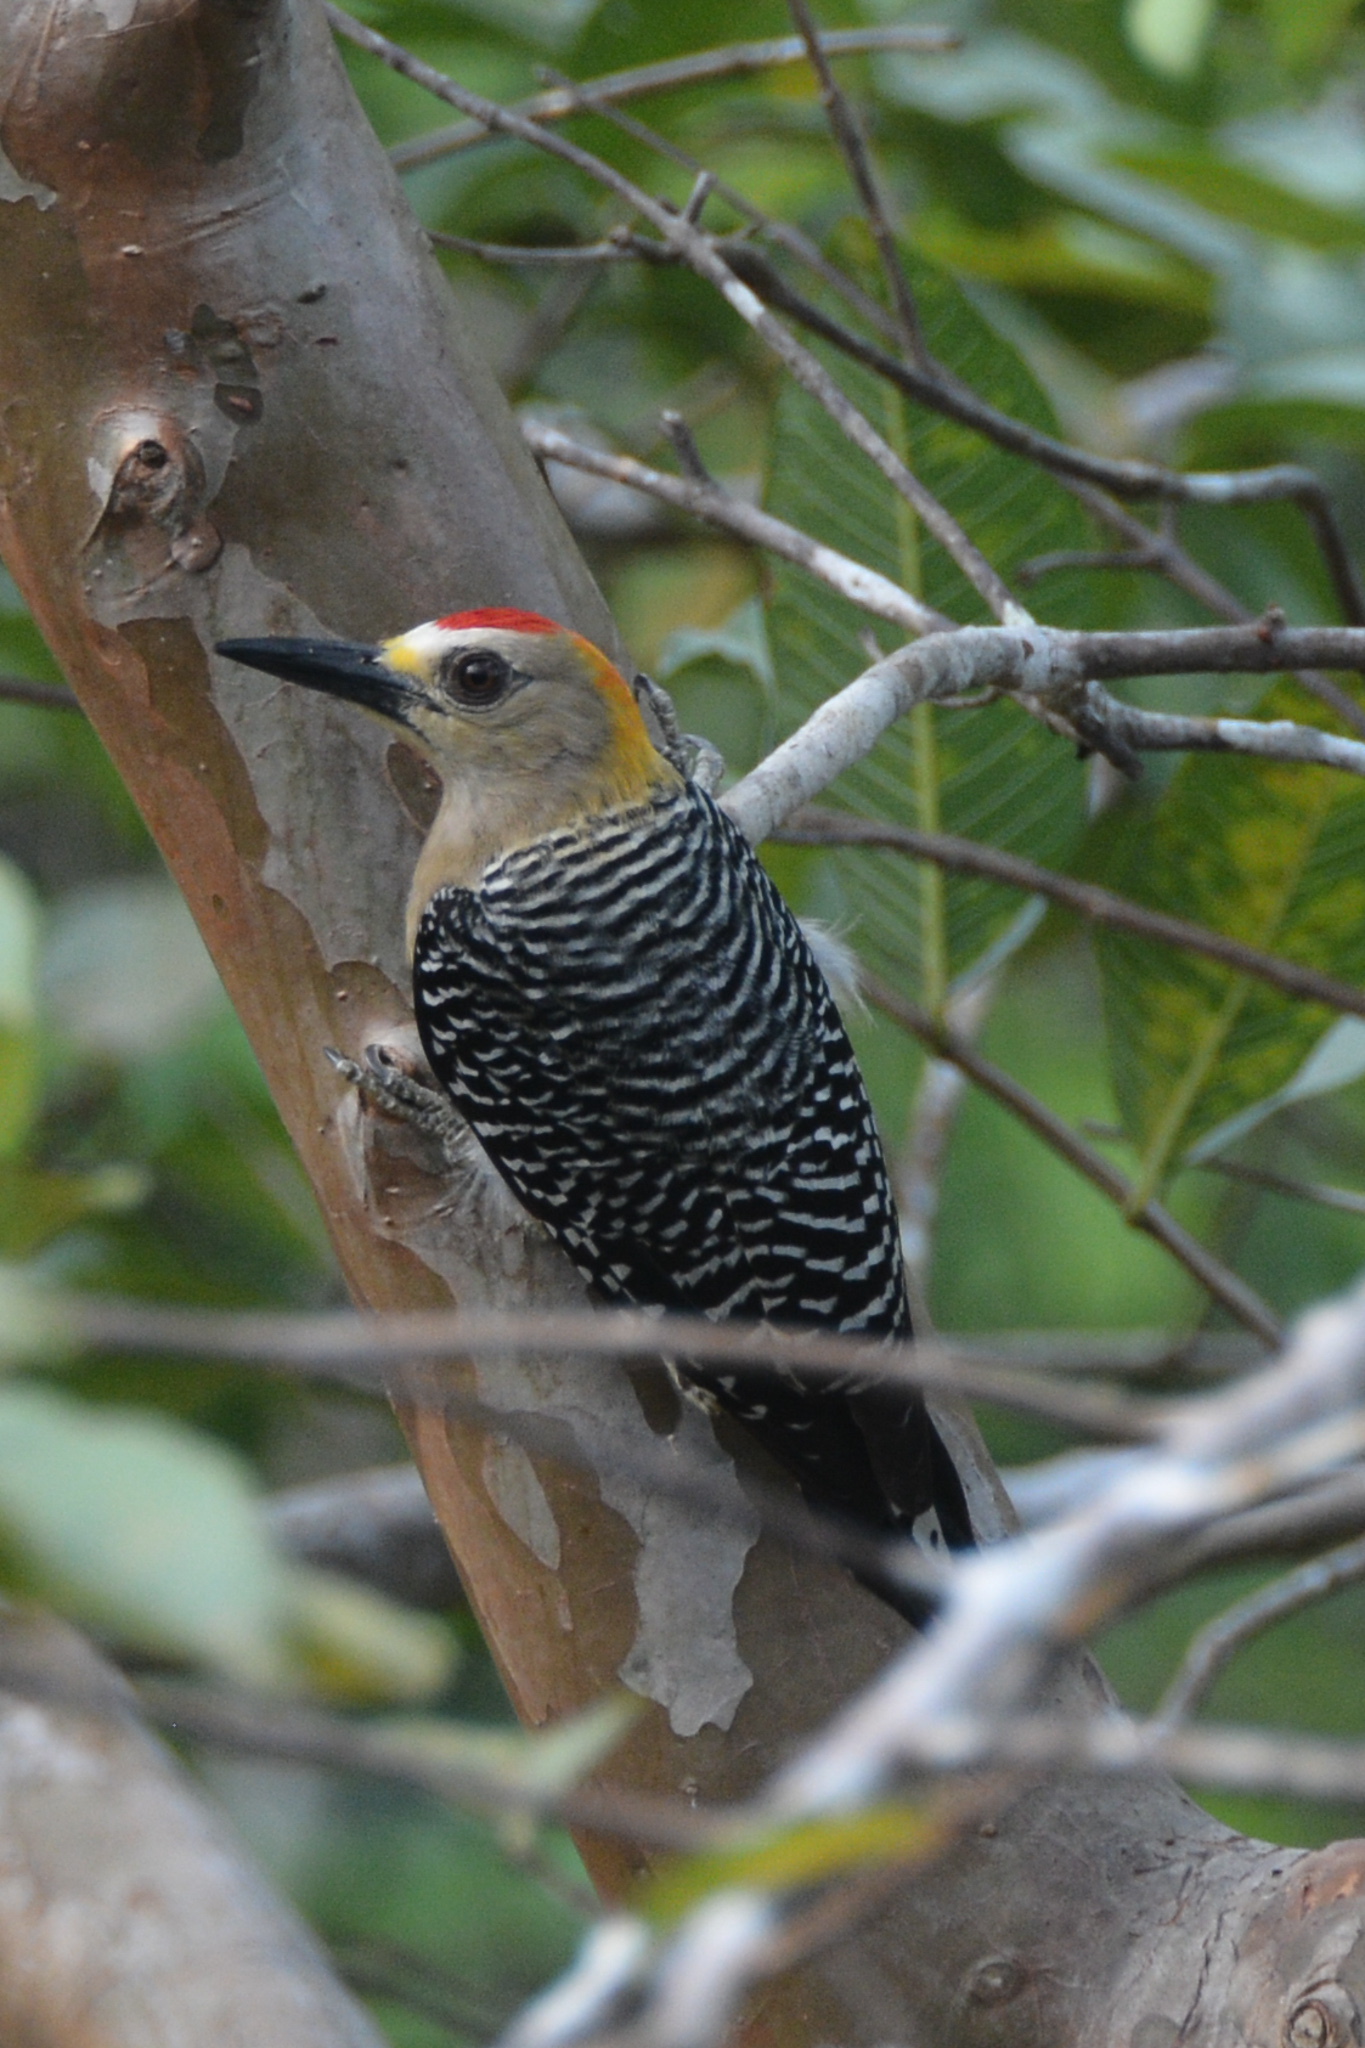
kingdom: Animalia
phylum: Chordata
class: Aves
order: Piciformes
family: Picidae
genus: Melanerpes
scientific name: Melanerpes hoffmannii
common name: Hoffmann's woodpecker
